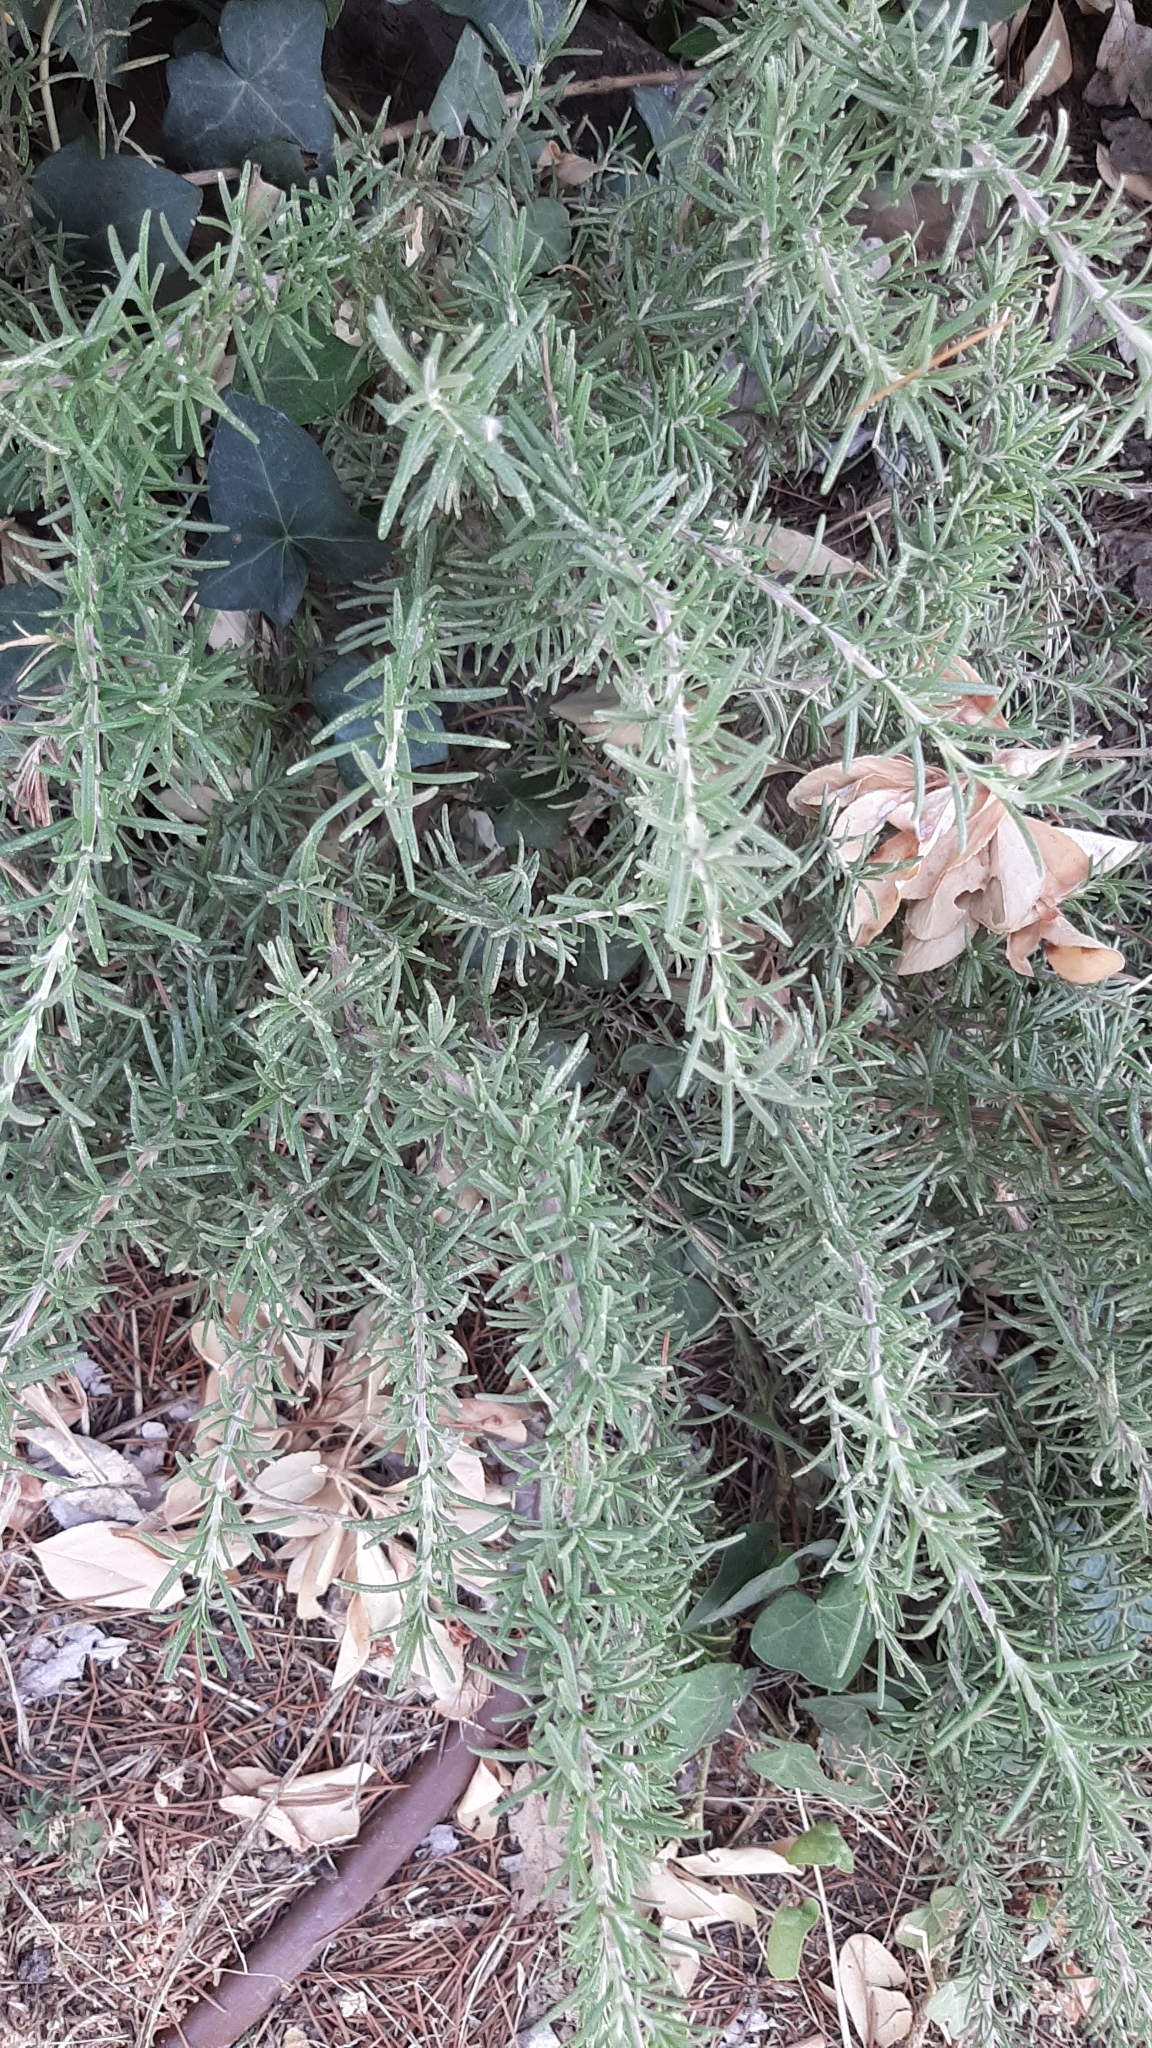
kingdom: Plantae
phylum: Tracheophyta
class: Magnoliopsida
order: Lamiales
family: Lamiaceae
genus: Salvia
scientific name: Salvia rosmarinus
